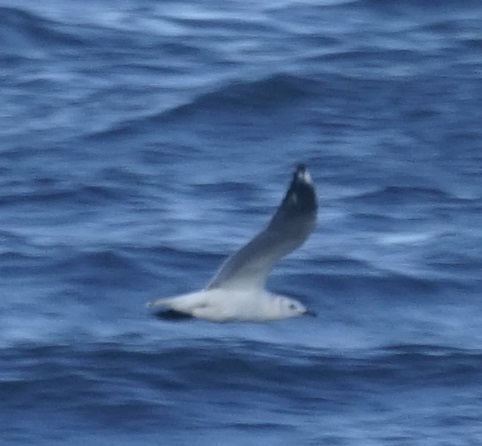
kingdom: Animalia
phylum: Chordata
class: Aves
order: Charadriiformes
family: Laridae
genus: Chroicocephalus
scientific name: Chroicocephalus novaehollandiae
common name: Silver gull
